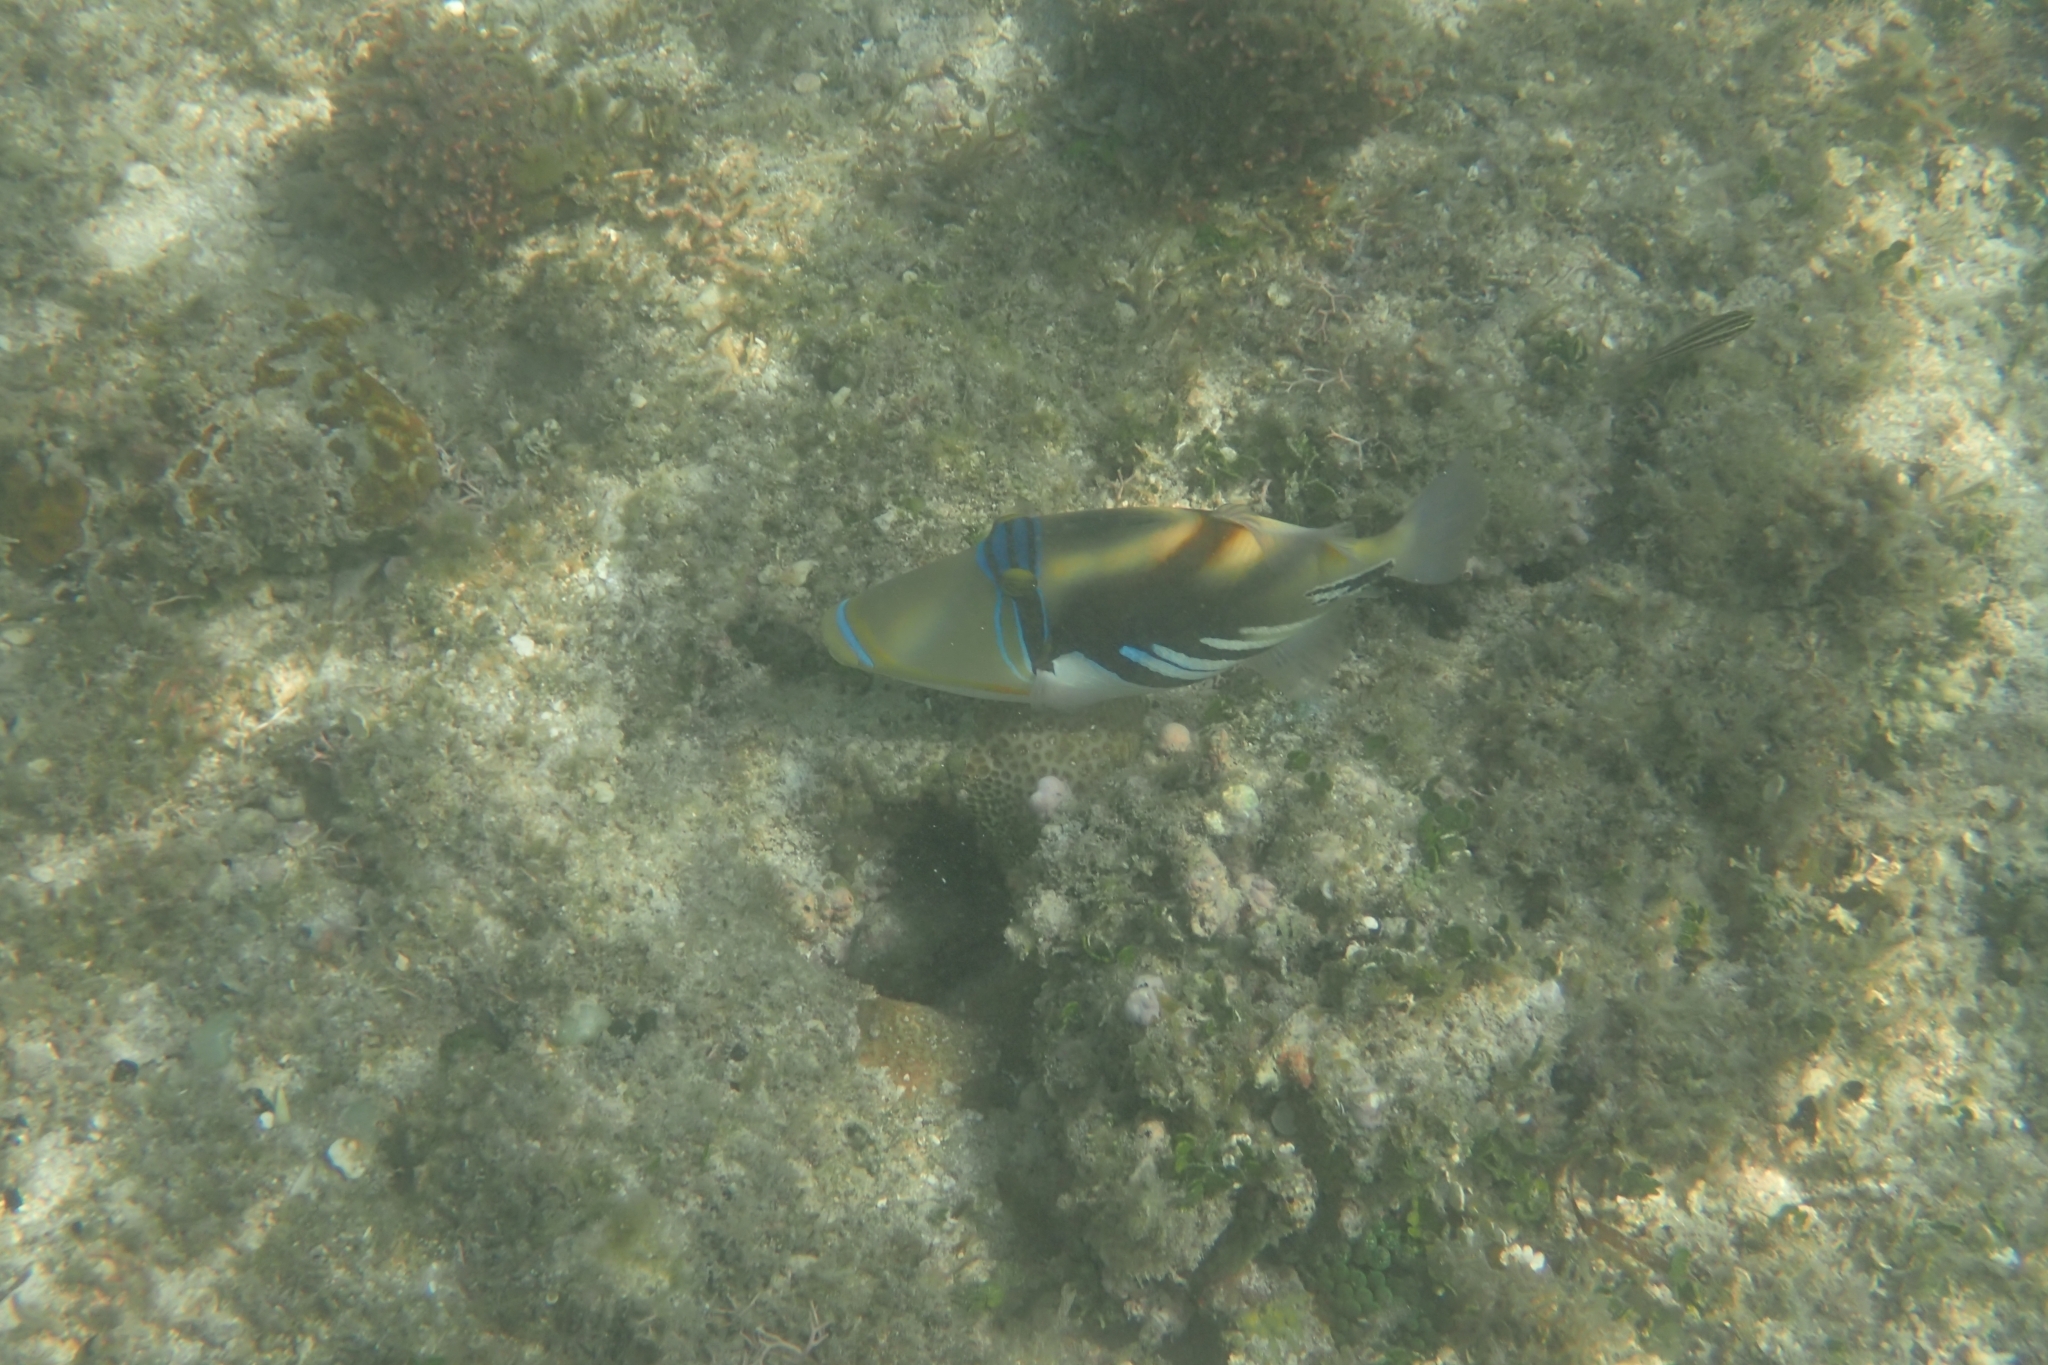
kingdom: Animalia
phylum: Chordata
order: Tetraodontiformes
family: Balistidae
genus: Rhinecanthus
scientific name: Rhinecanthus aculeatus
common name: White-banded triggerfish
